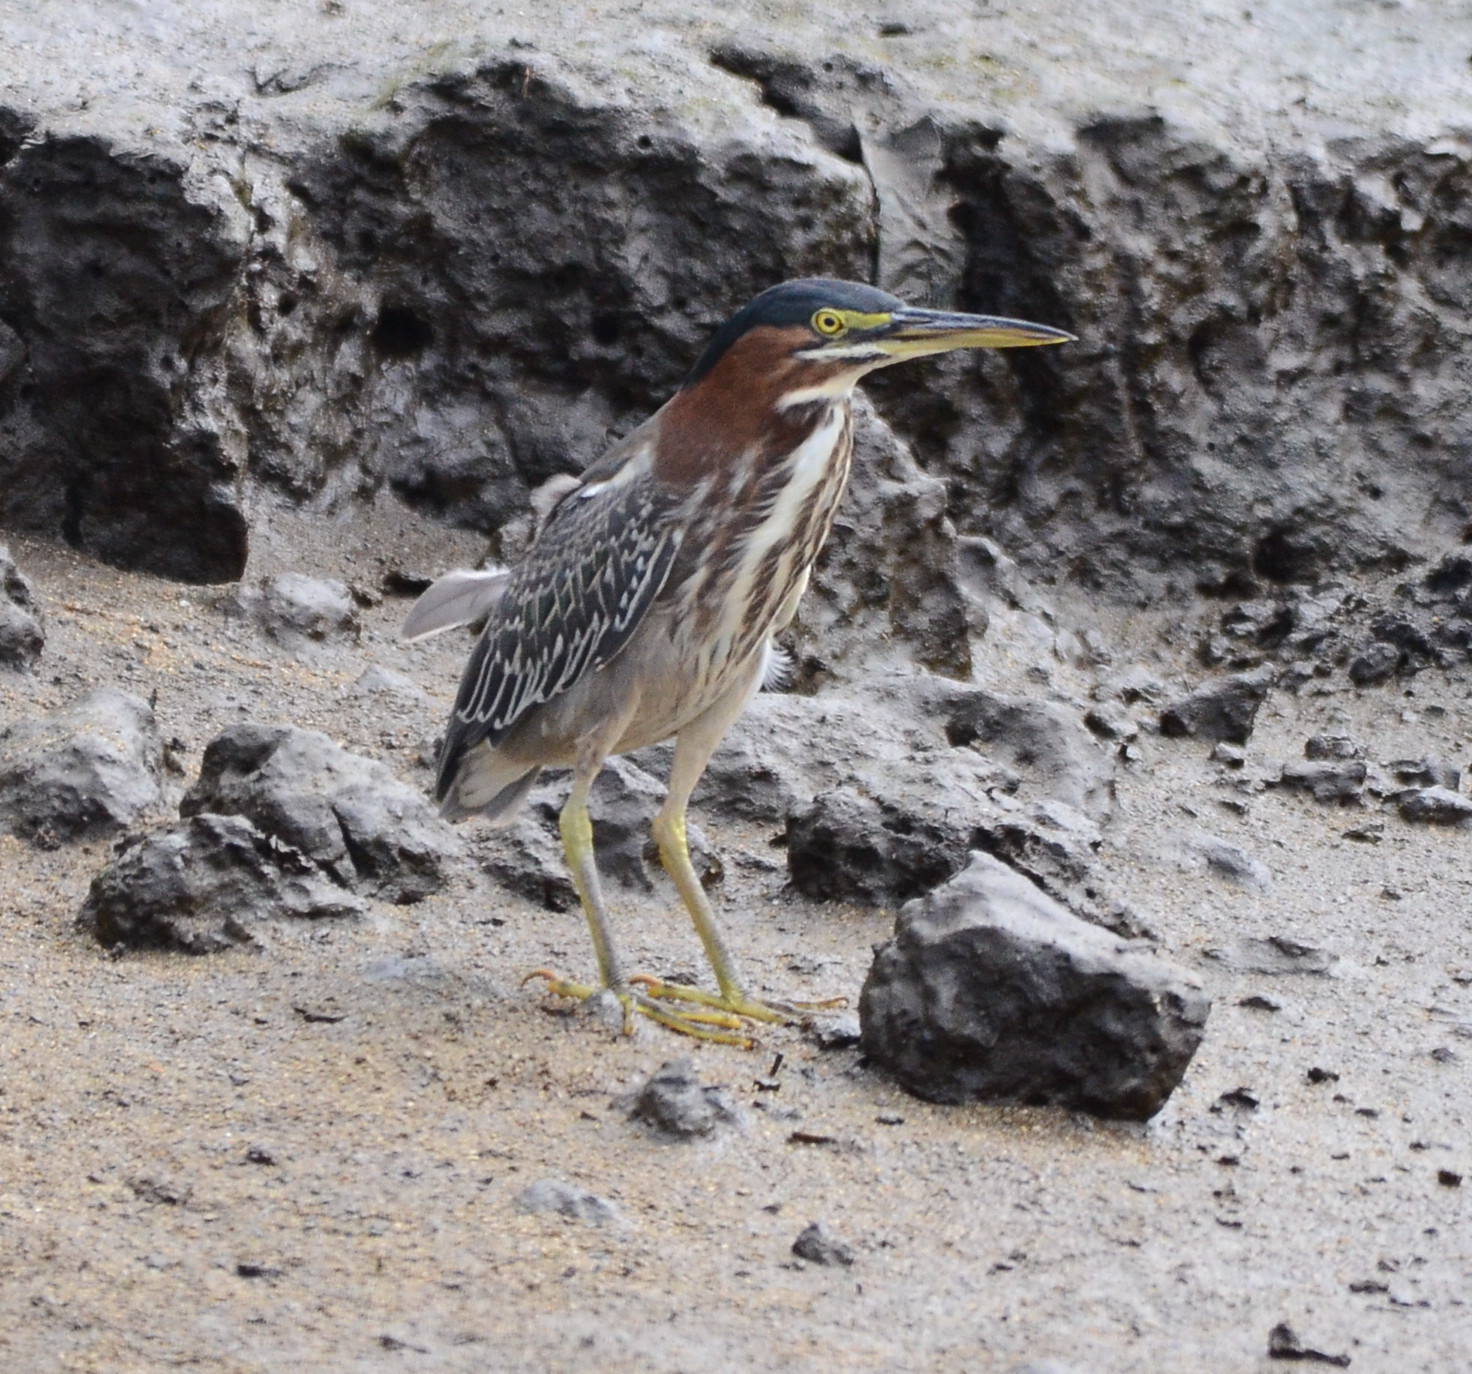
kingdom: Animalia
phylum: Chordata
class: Aves
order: Pelecaniformes
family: Ardeidae
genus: Butorides
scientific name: Butorides virescens
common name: Green heron
